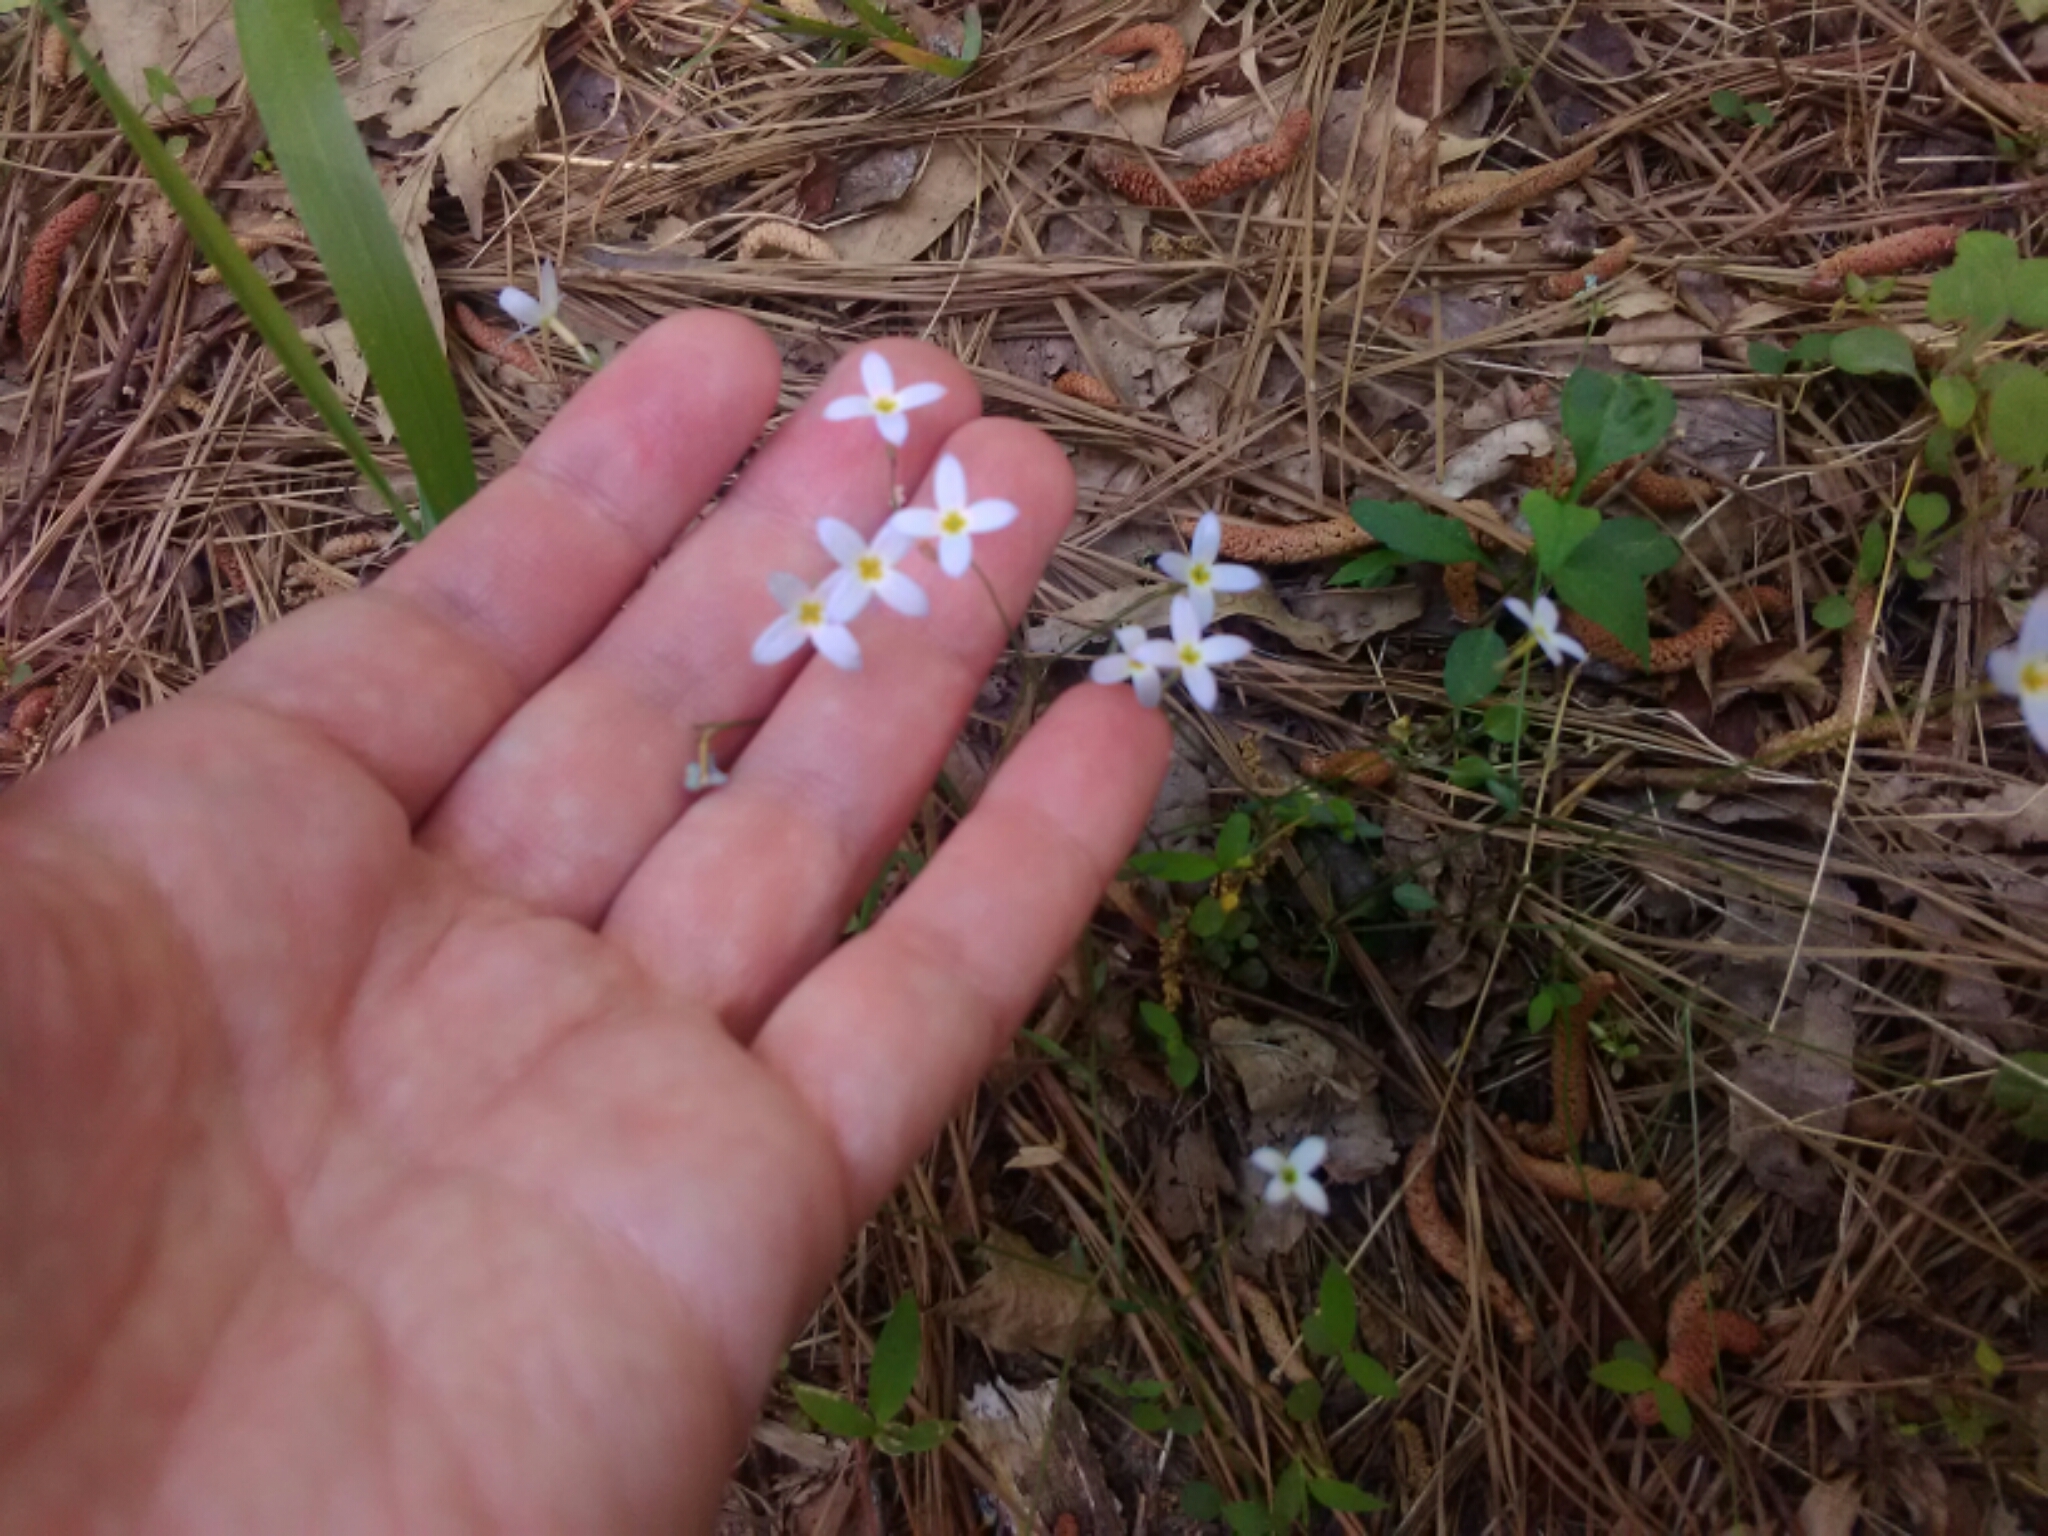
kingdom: Plantae
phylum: Tracheophyta
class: Magnoliopsida
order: Gentianales
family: Rubiaceae
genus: Houstonia
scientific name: Houstonia caerulea
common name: Bluets
